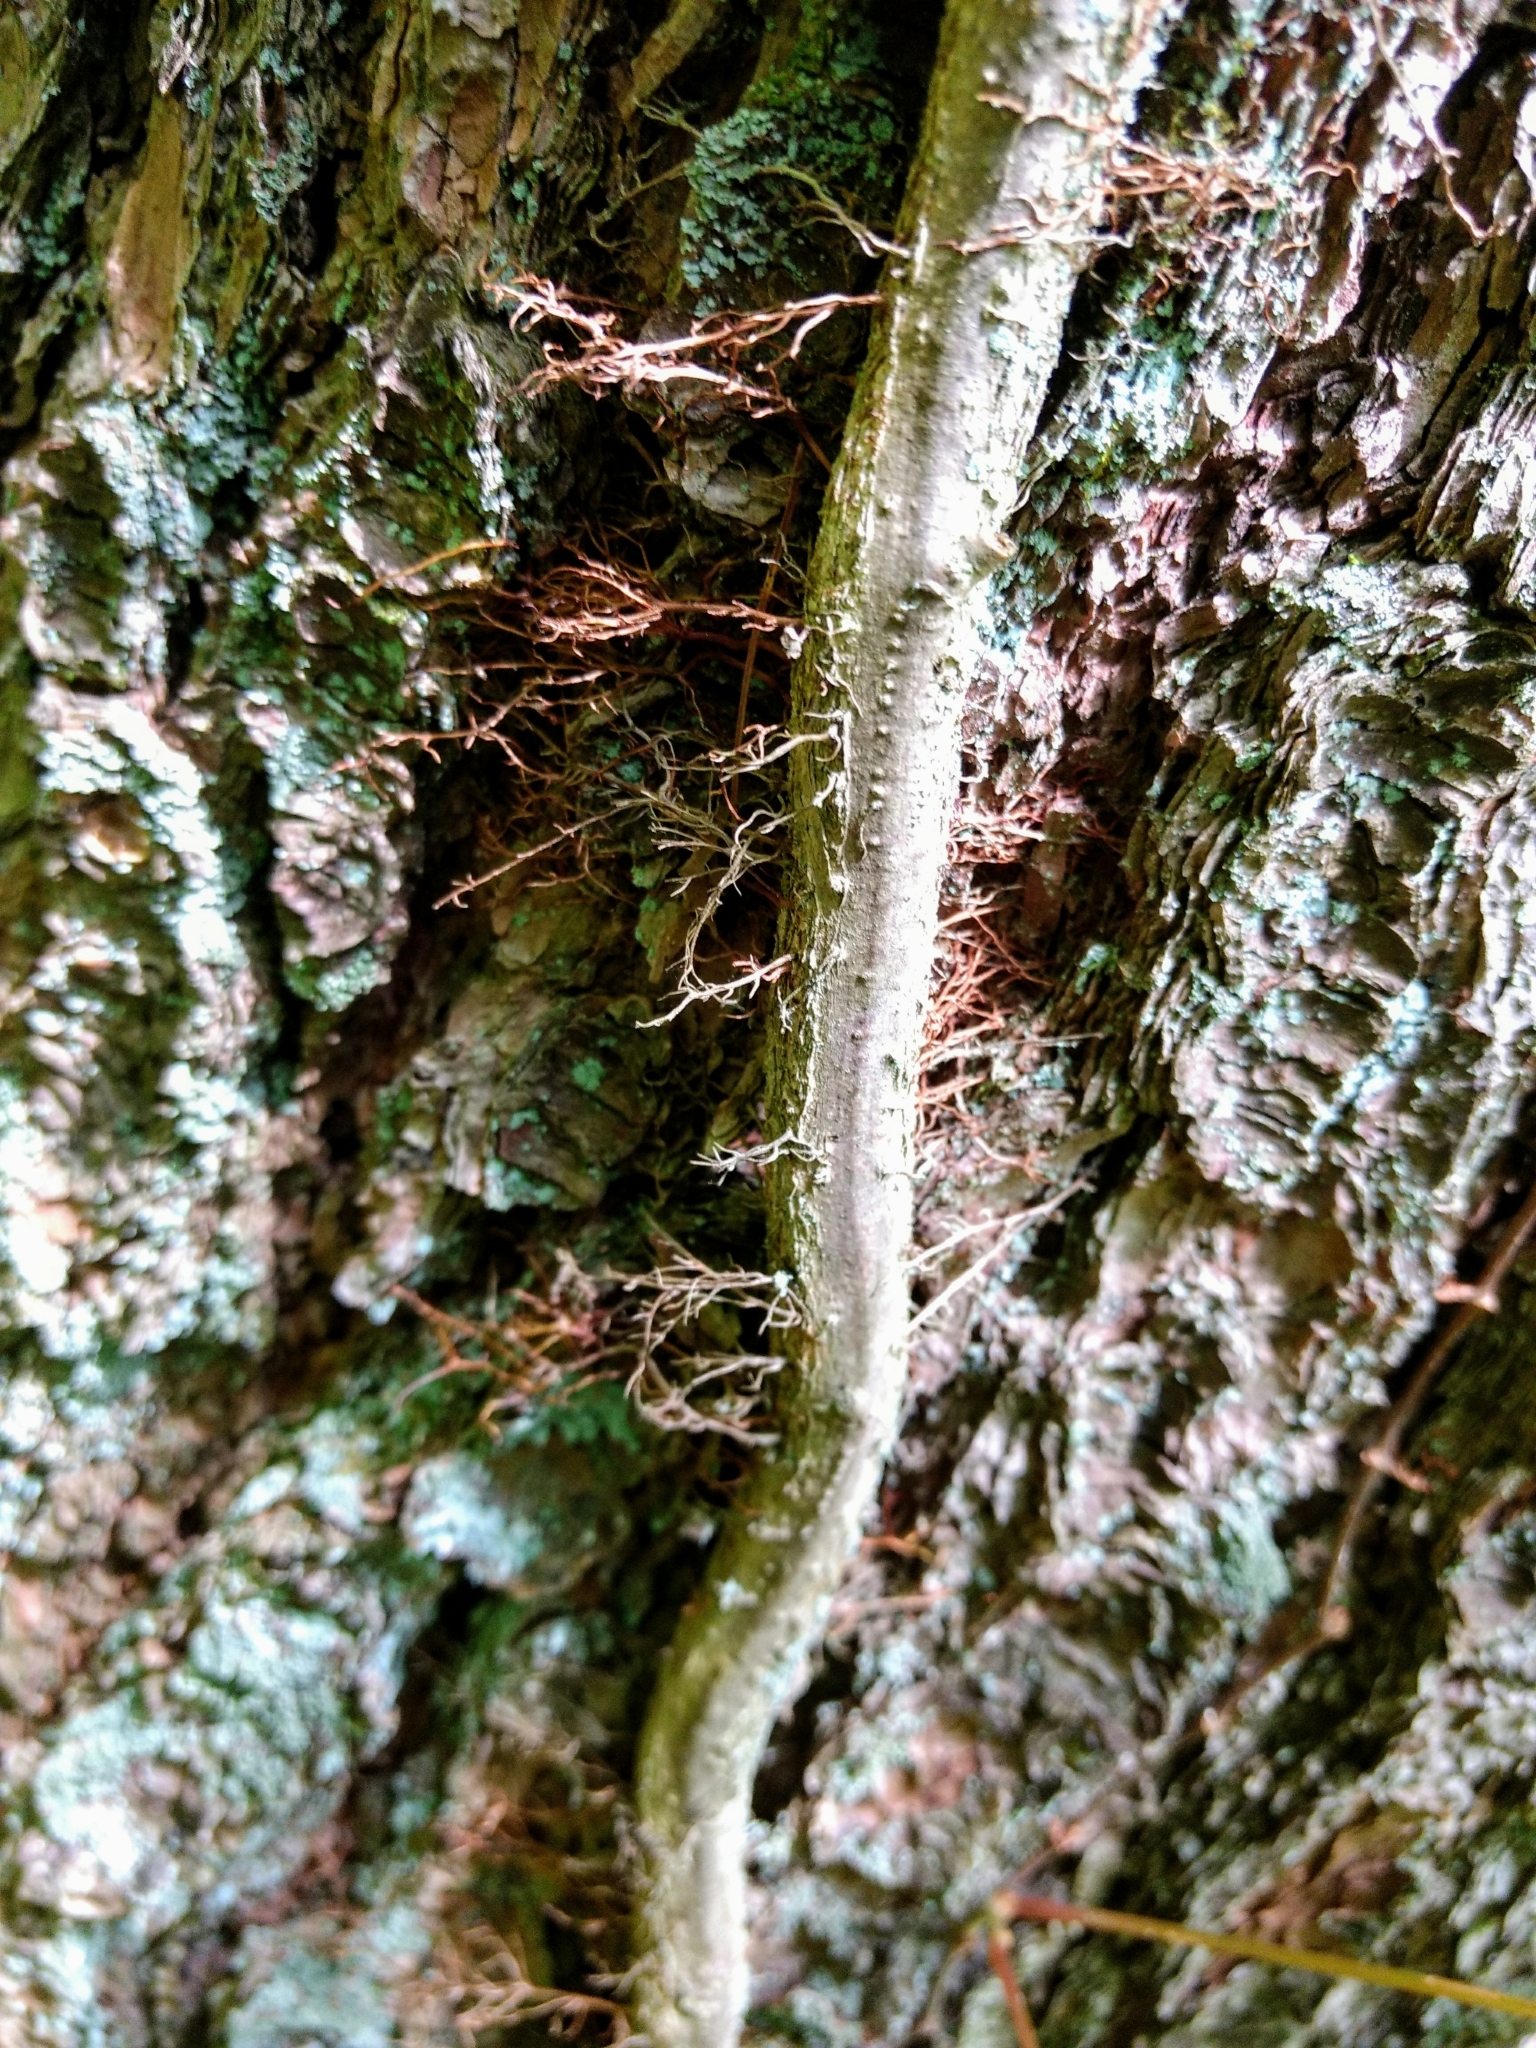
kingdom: Plantae
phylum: Tracheophyta
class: Magnoliopsida
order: Sapindales
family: Anacardiaceae
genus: Toxicodendron
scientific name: Toxicodendron radicans
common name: Poison ivy
